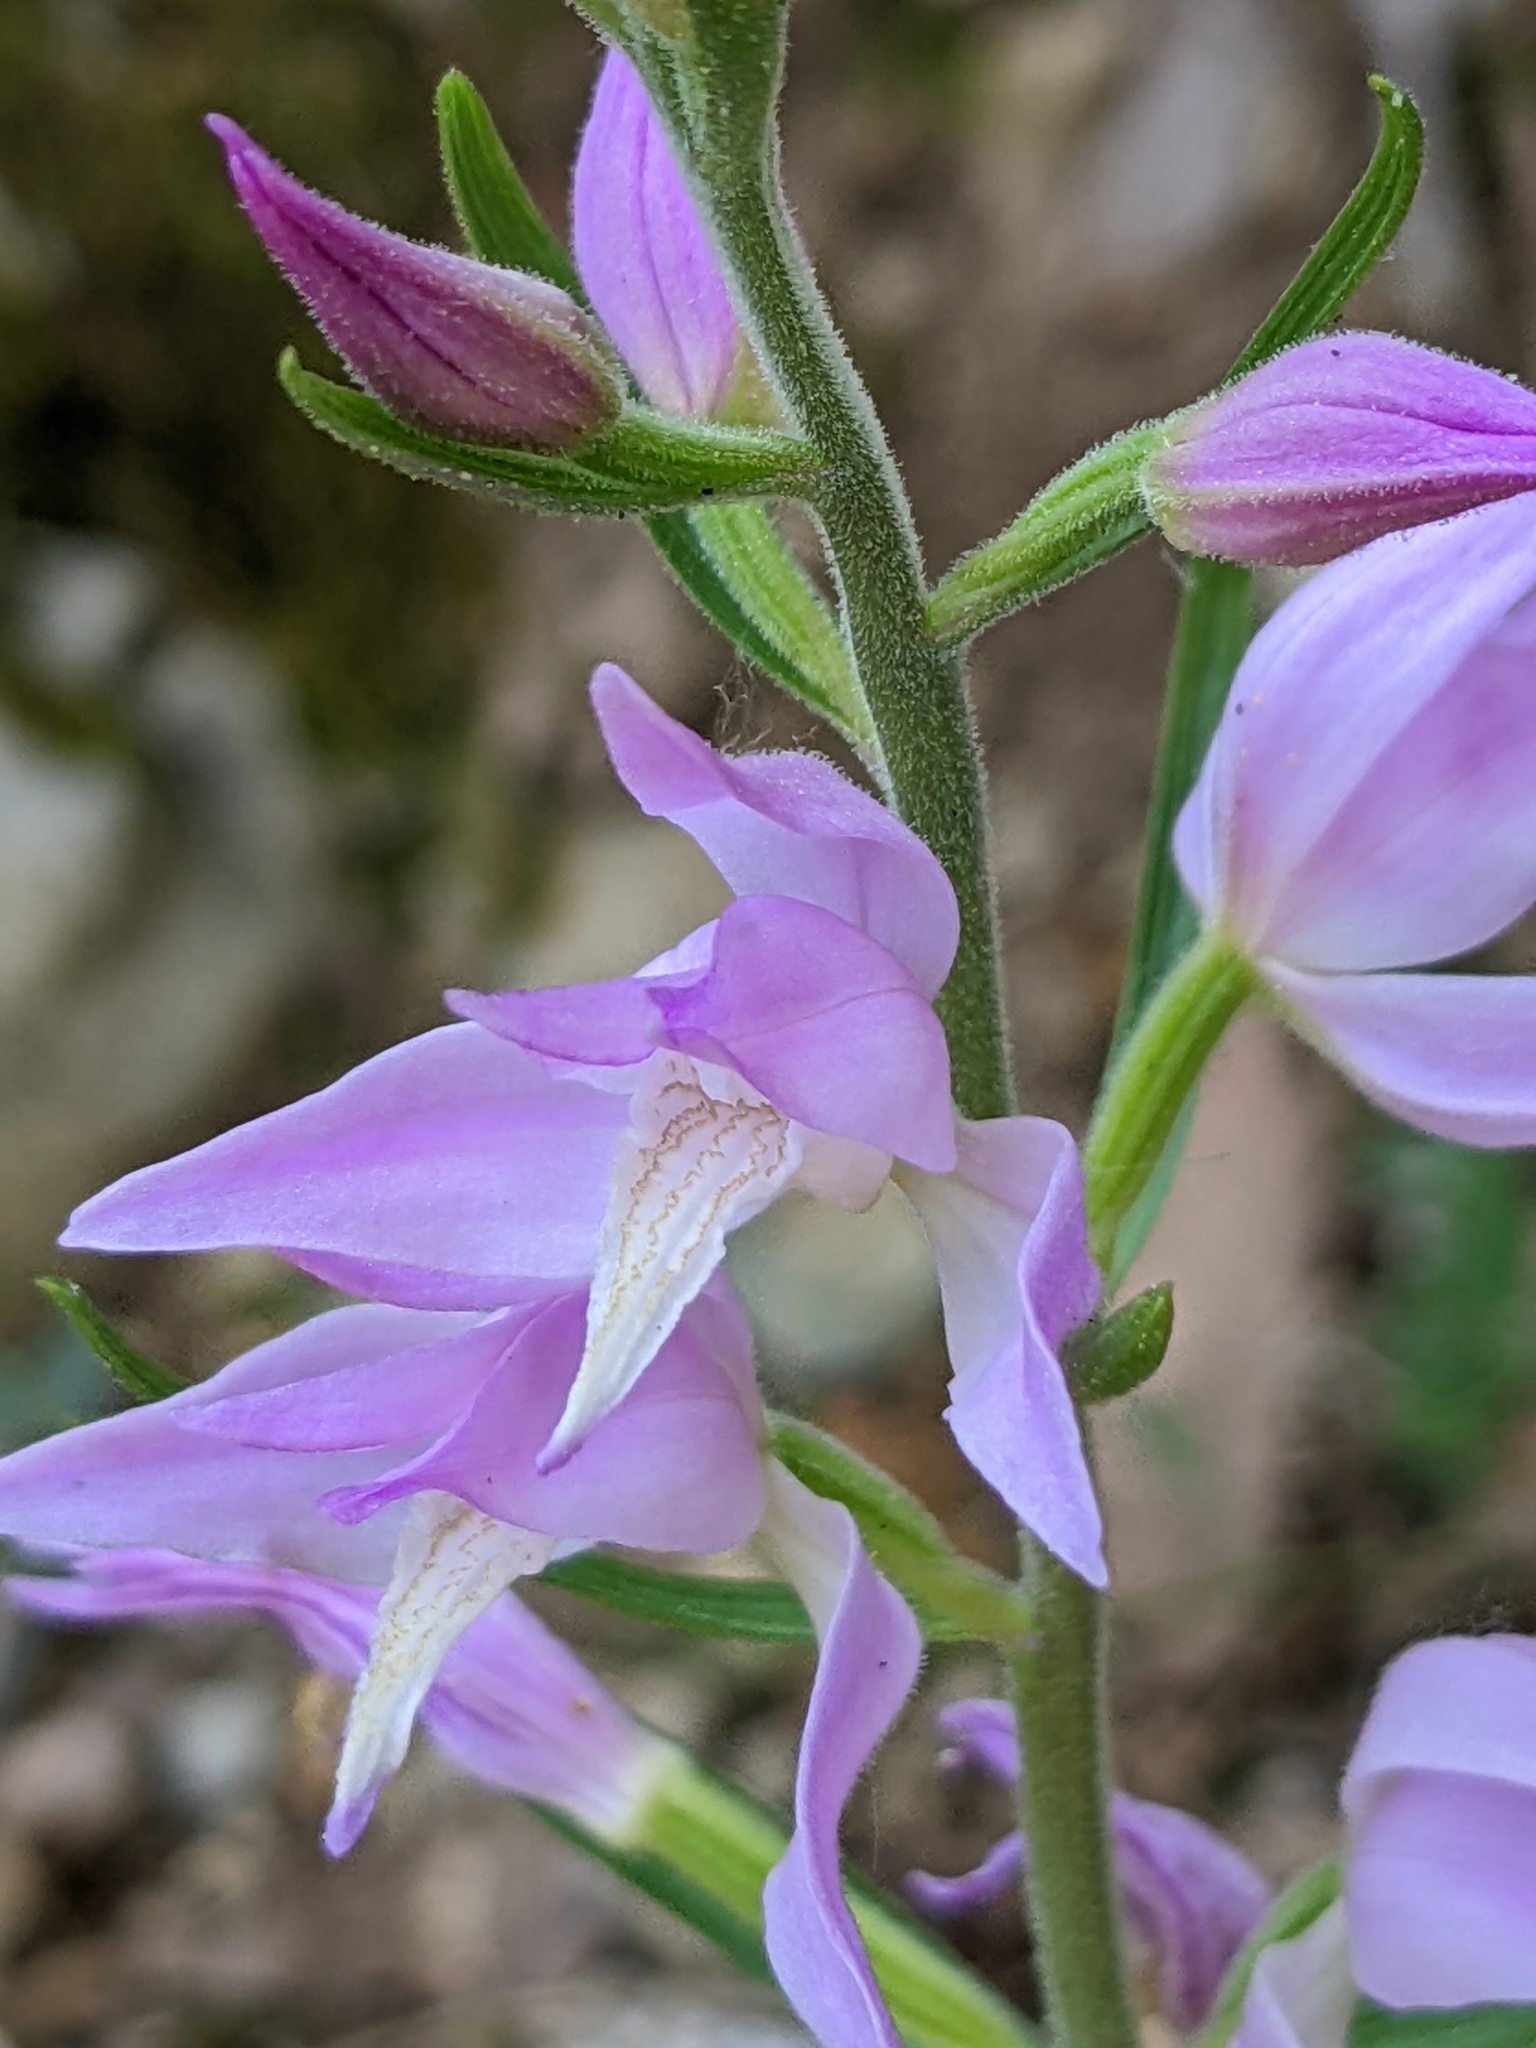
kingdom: Plantae
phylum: Tracheophyta
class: Liliopsida
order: Asparagales
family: Orchidaceae
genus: Cephalanthera
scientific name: Cephalanthera rubra
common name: Red helleborine
